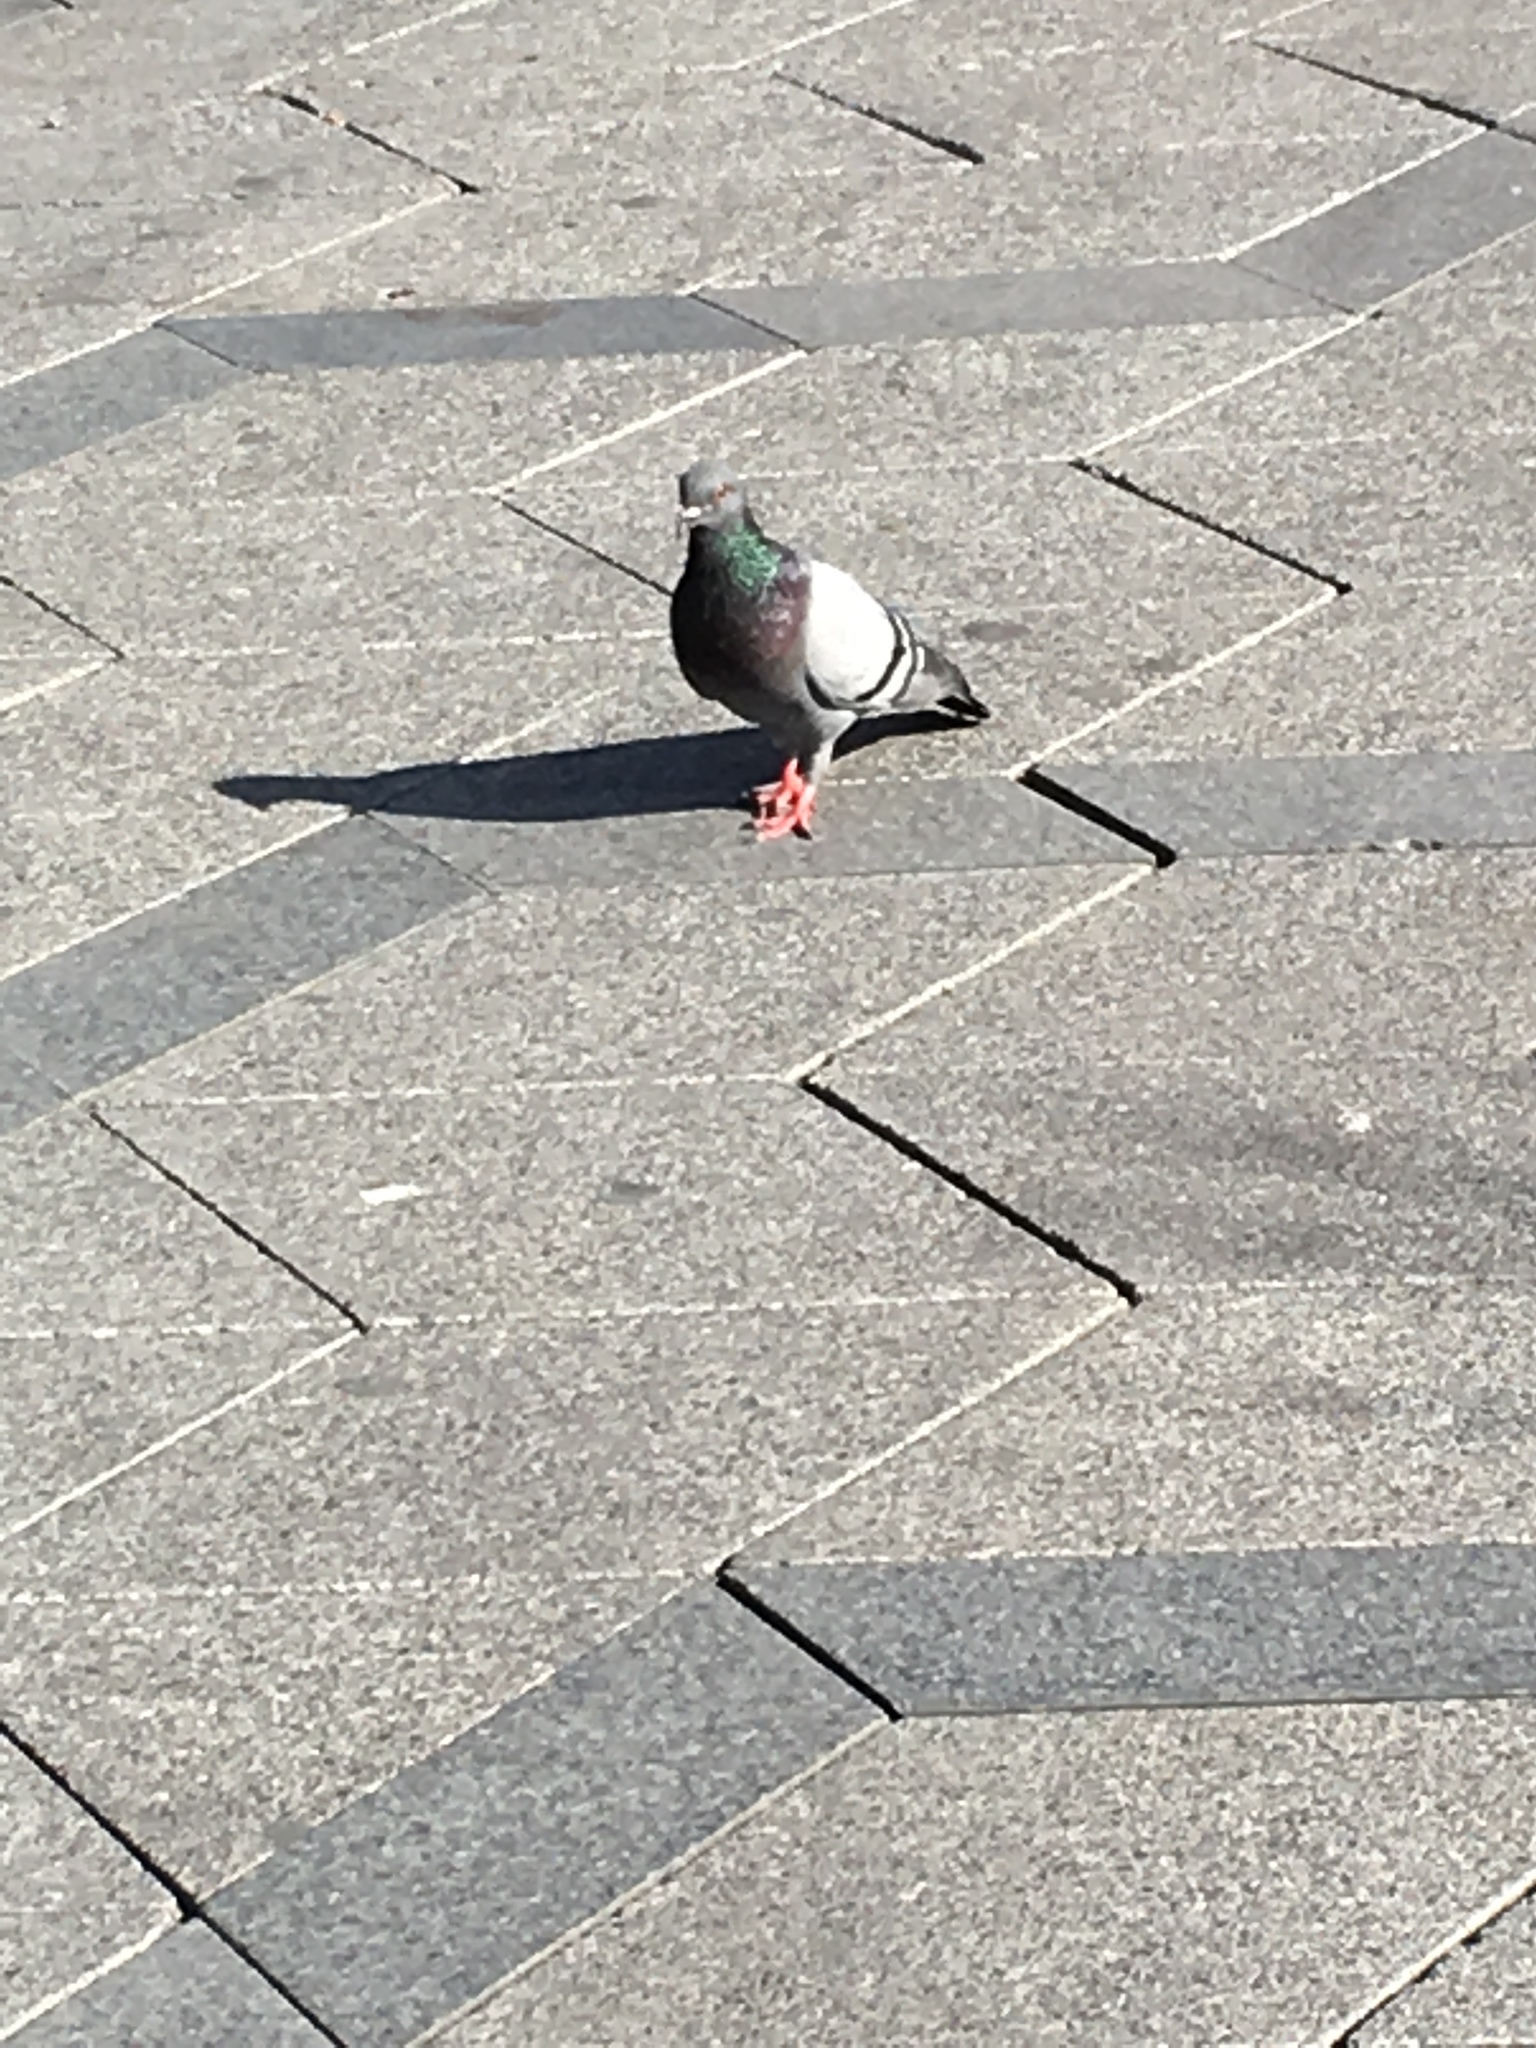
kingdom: Animalia
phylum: Chordata
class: Aves
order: Columbiformes
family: Columbidae
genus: Columba
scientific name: Columba livia
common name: Rock pigeon
